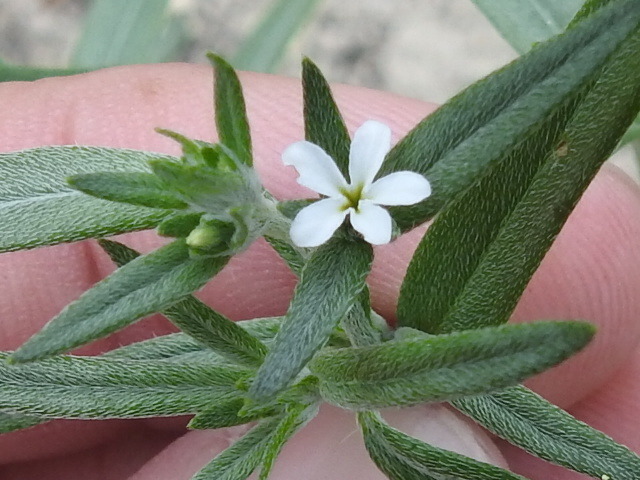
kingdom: Plantae
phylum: Tracheophyta
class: Magnoliopsida
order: Boraginales
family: Heliotropiaceae
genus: Euploca
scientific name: Euploca tenella
